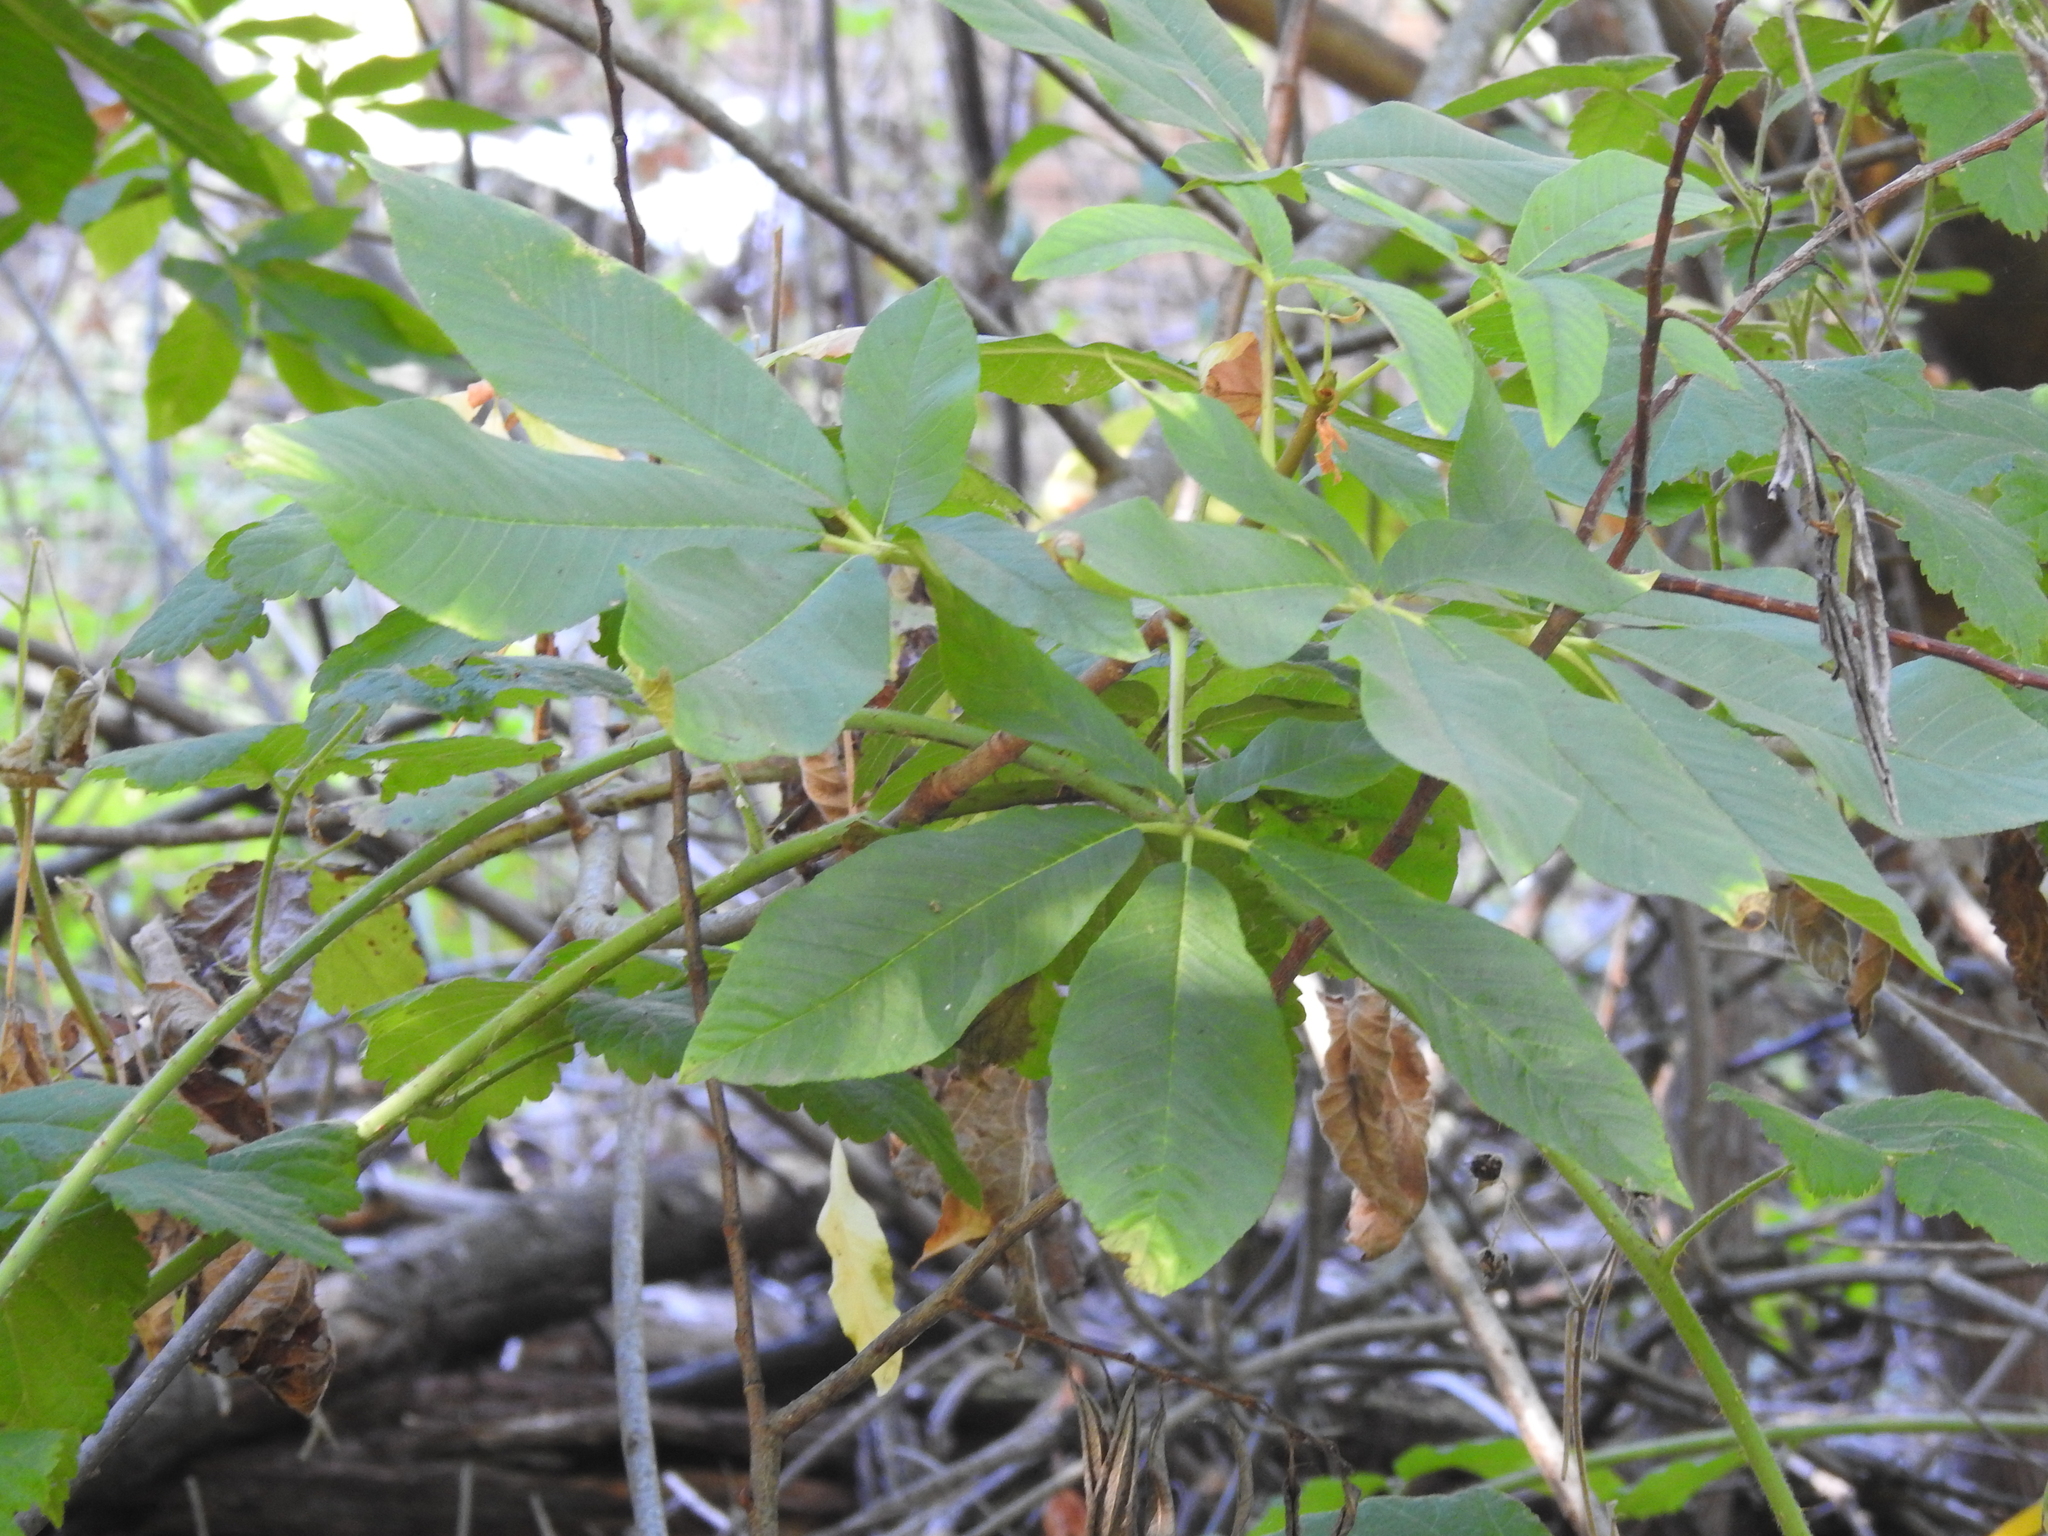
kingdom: Plantae
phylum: Tracheophyta
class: Magnoliopsida
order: Sapindales
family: Sapindaceae
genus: Aesculus
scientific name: Aesculus californica
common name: California buckeye
